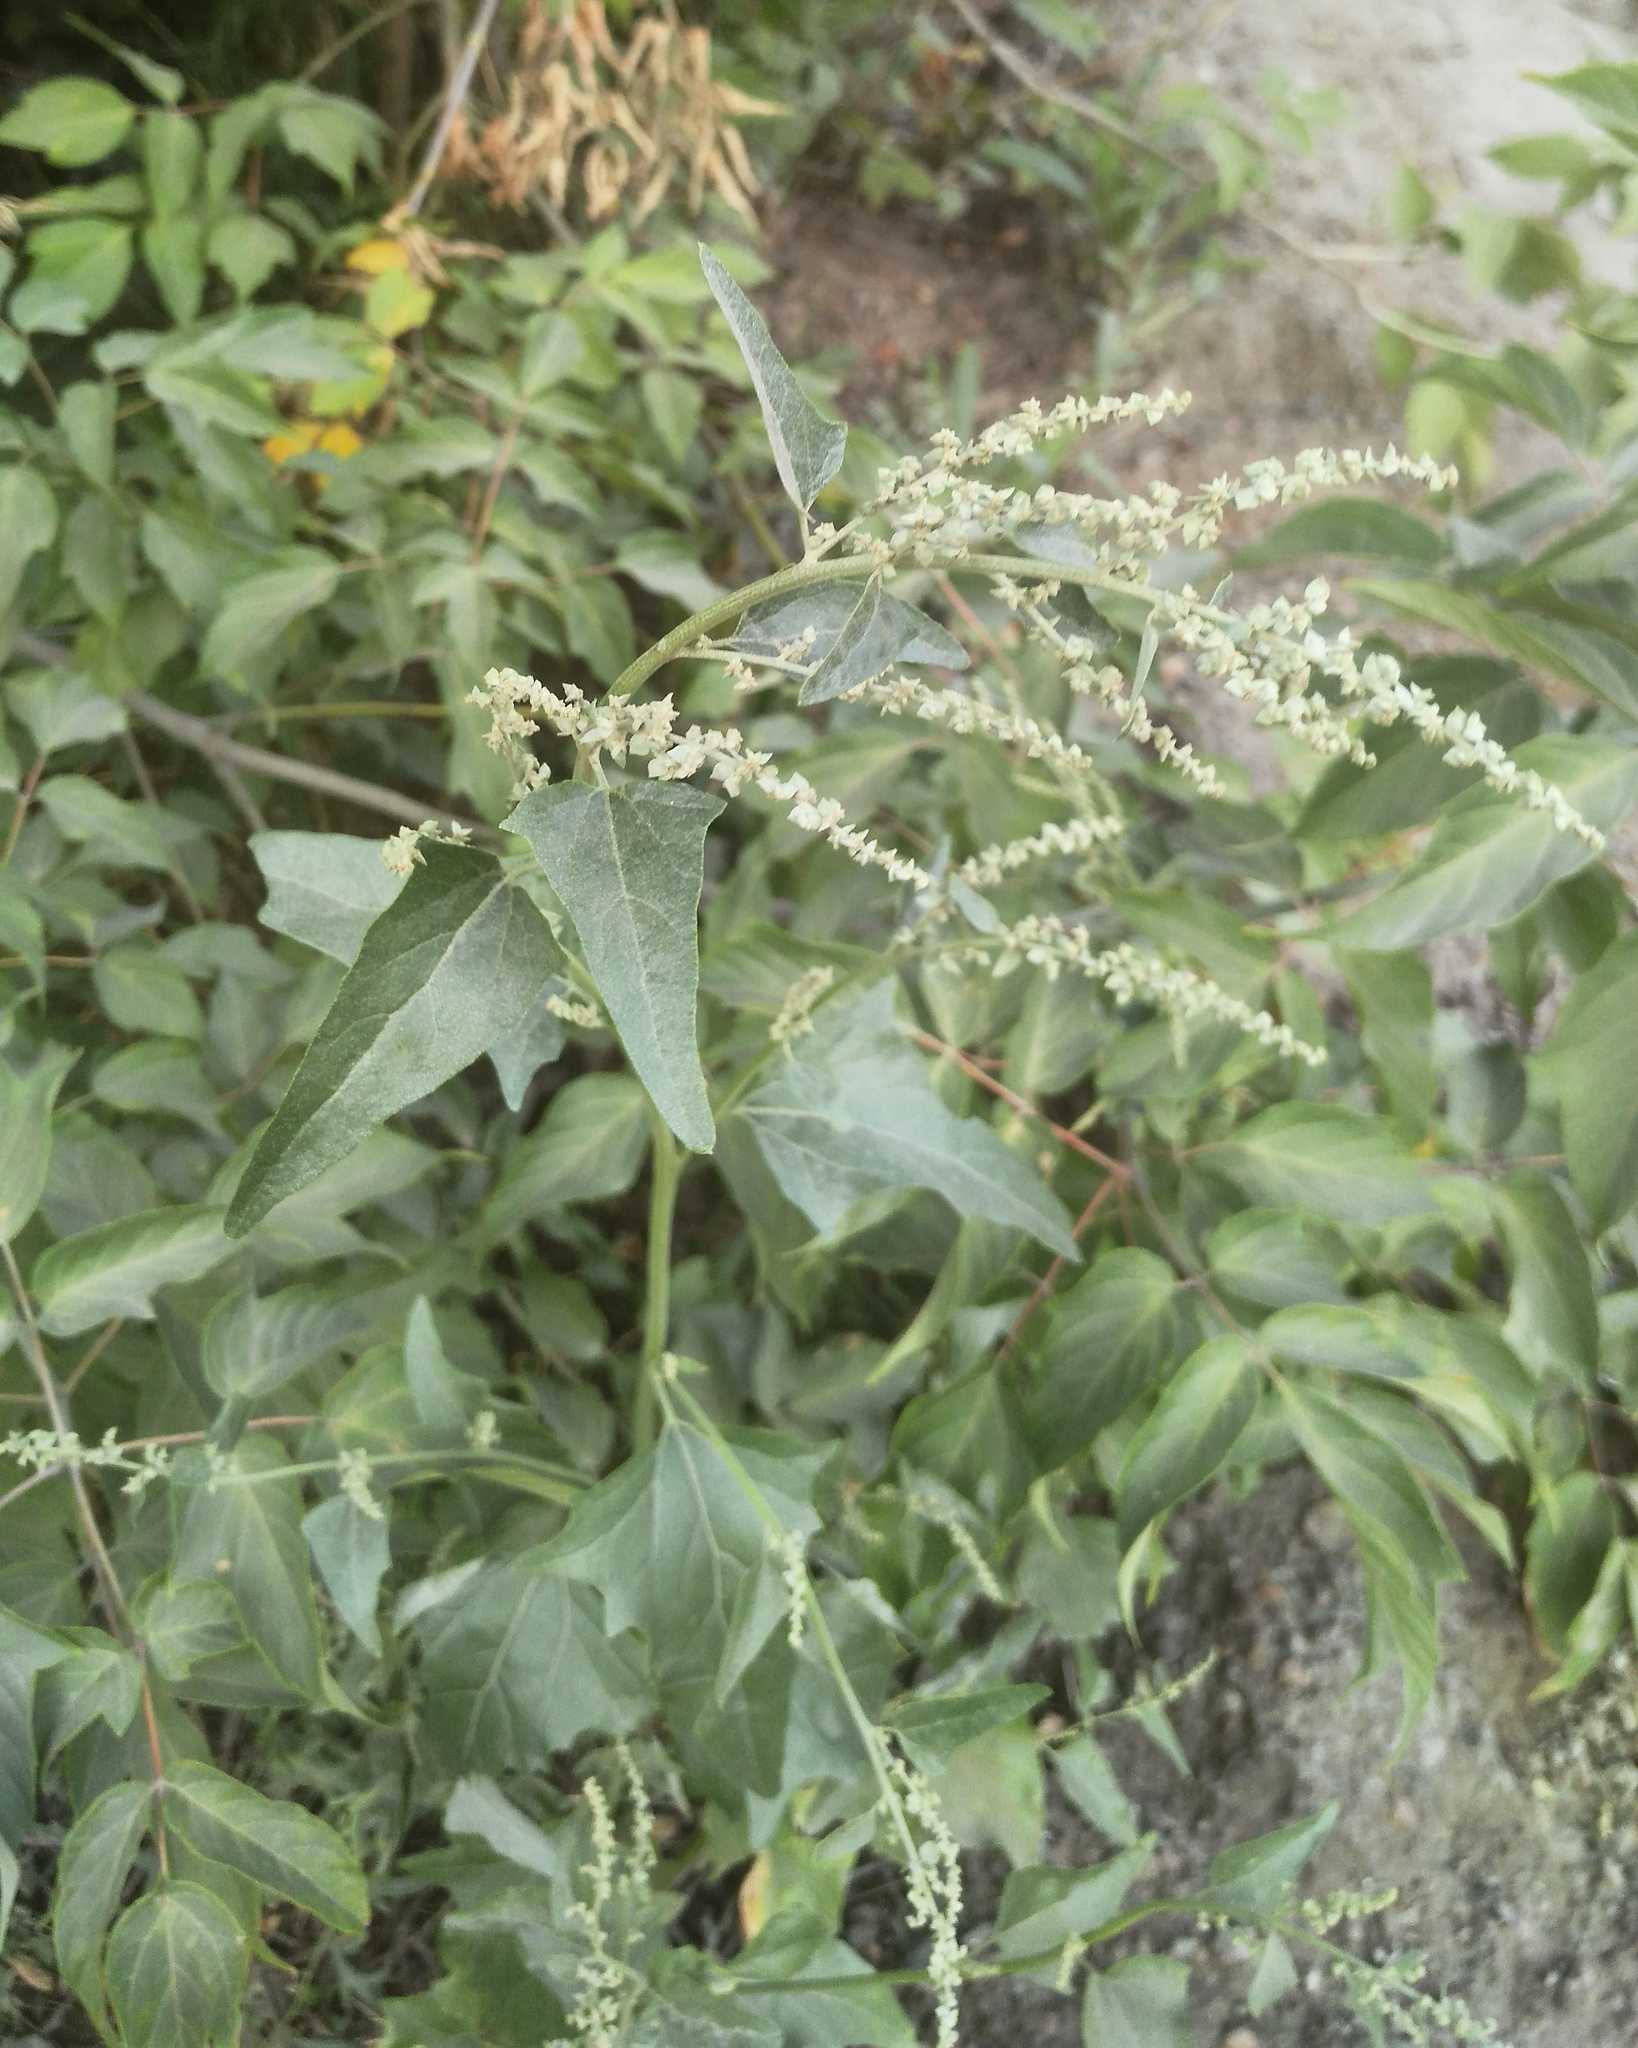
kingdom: Plantae
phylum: Tracheophyta
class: Magnoliopsida
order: Caryophyllales
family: Amaranthaceae
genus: Atriplex
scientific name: Atriplex sagittata
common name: Purple orache
